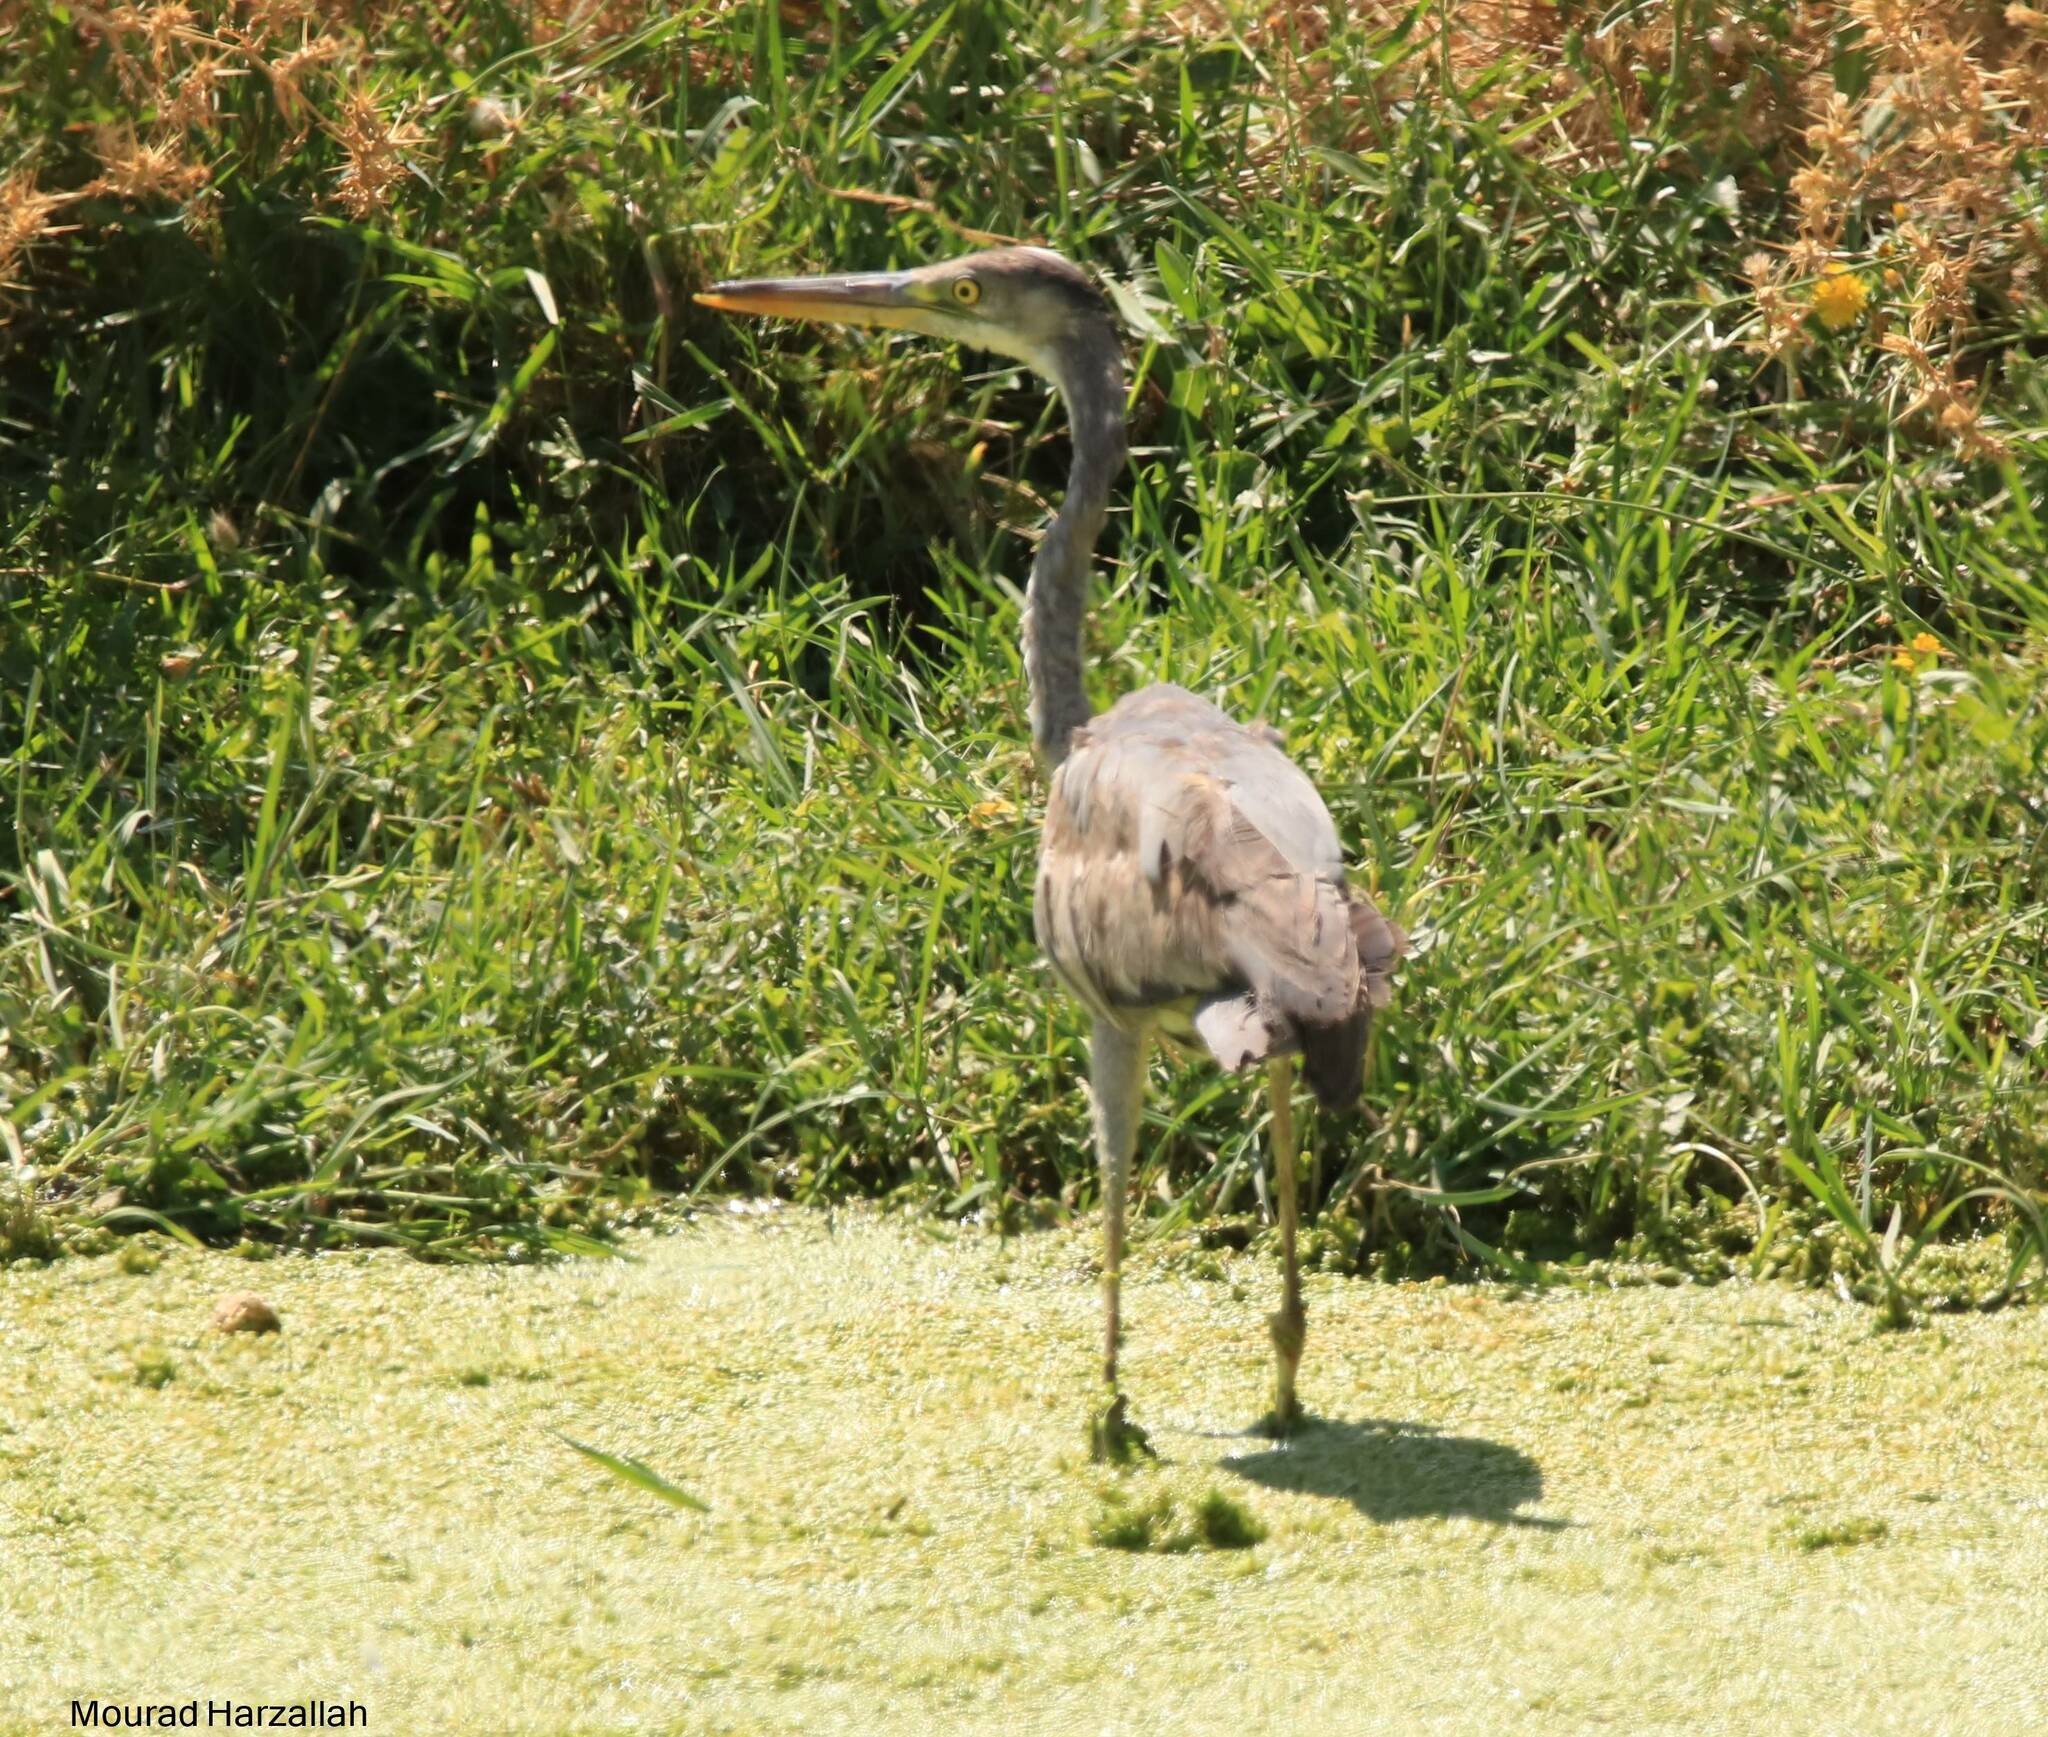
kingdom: Animalia
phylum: Chordata
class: Aves
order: Pelecaniformes
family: Ardeidae
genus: Ardea
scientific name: Ardea cinerea
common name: Grey heron
